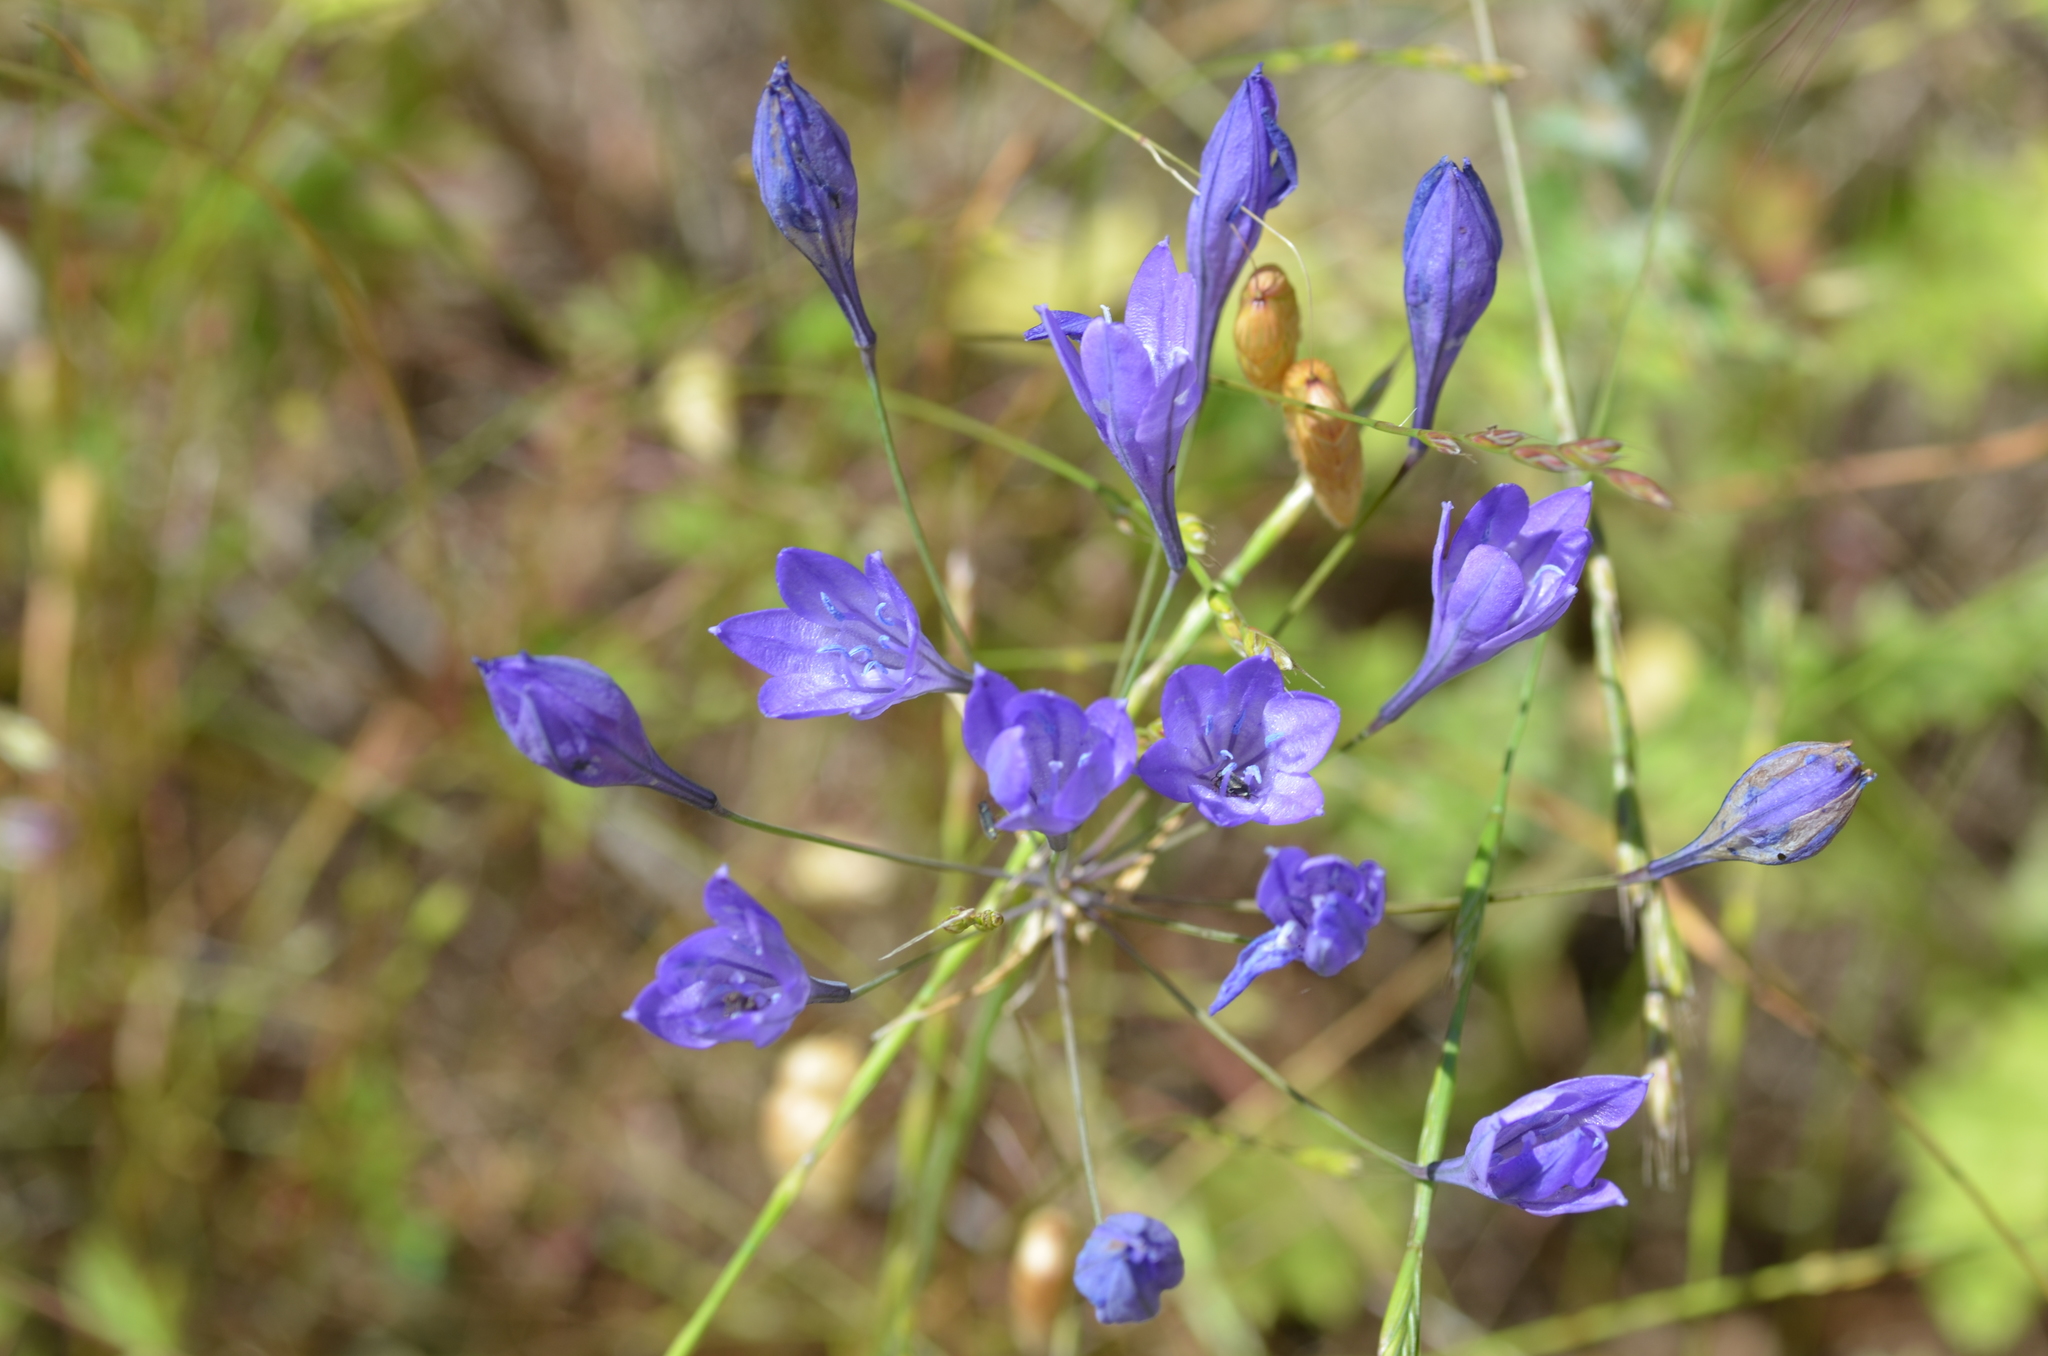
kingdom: Plantae
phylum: Tracheophyta
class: Liliopsida
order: Asparagales
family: Asparagaceae
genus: Triteleia
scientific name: Triteleia laxa
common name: Triplet-lily
